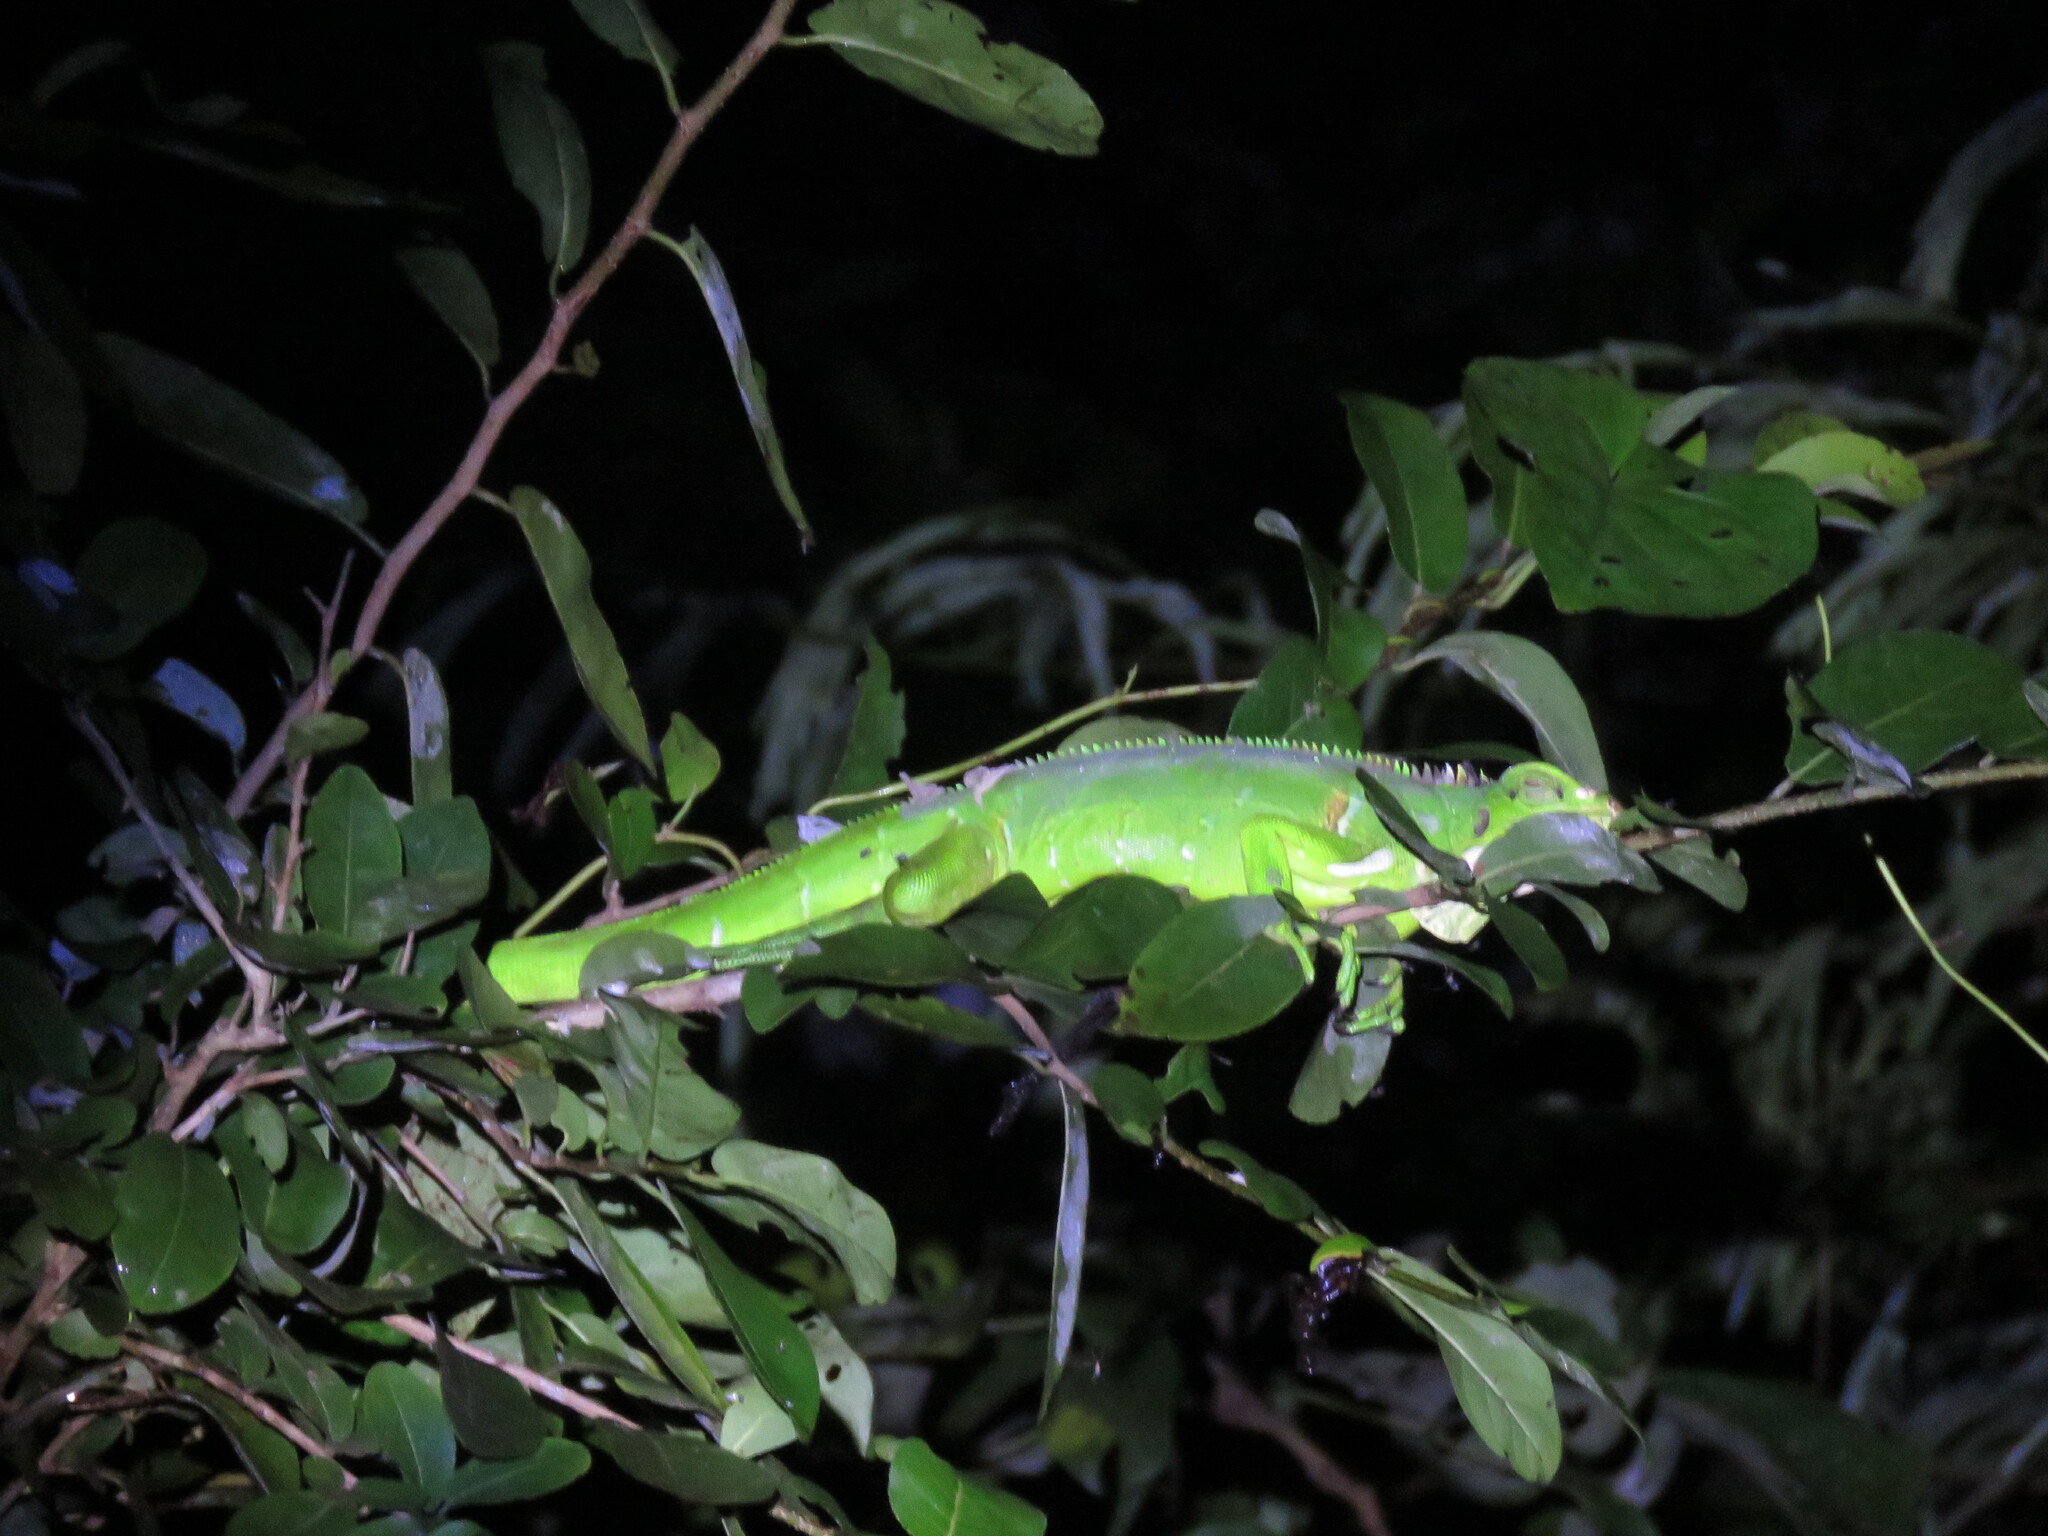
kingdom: Animalia
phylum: Chordata
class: Squamata
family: Iguanidae
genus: Iguana
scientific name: Iguana iguana
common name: Green iguana
